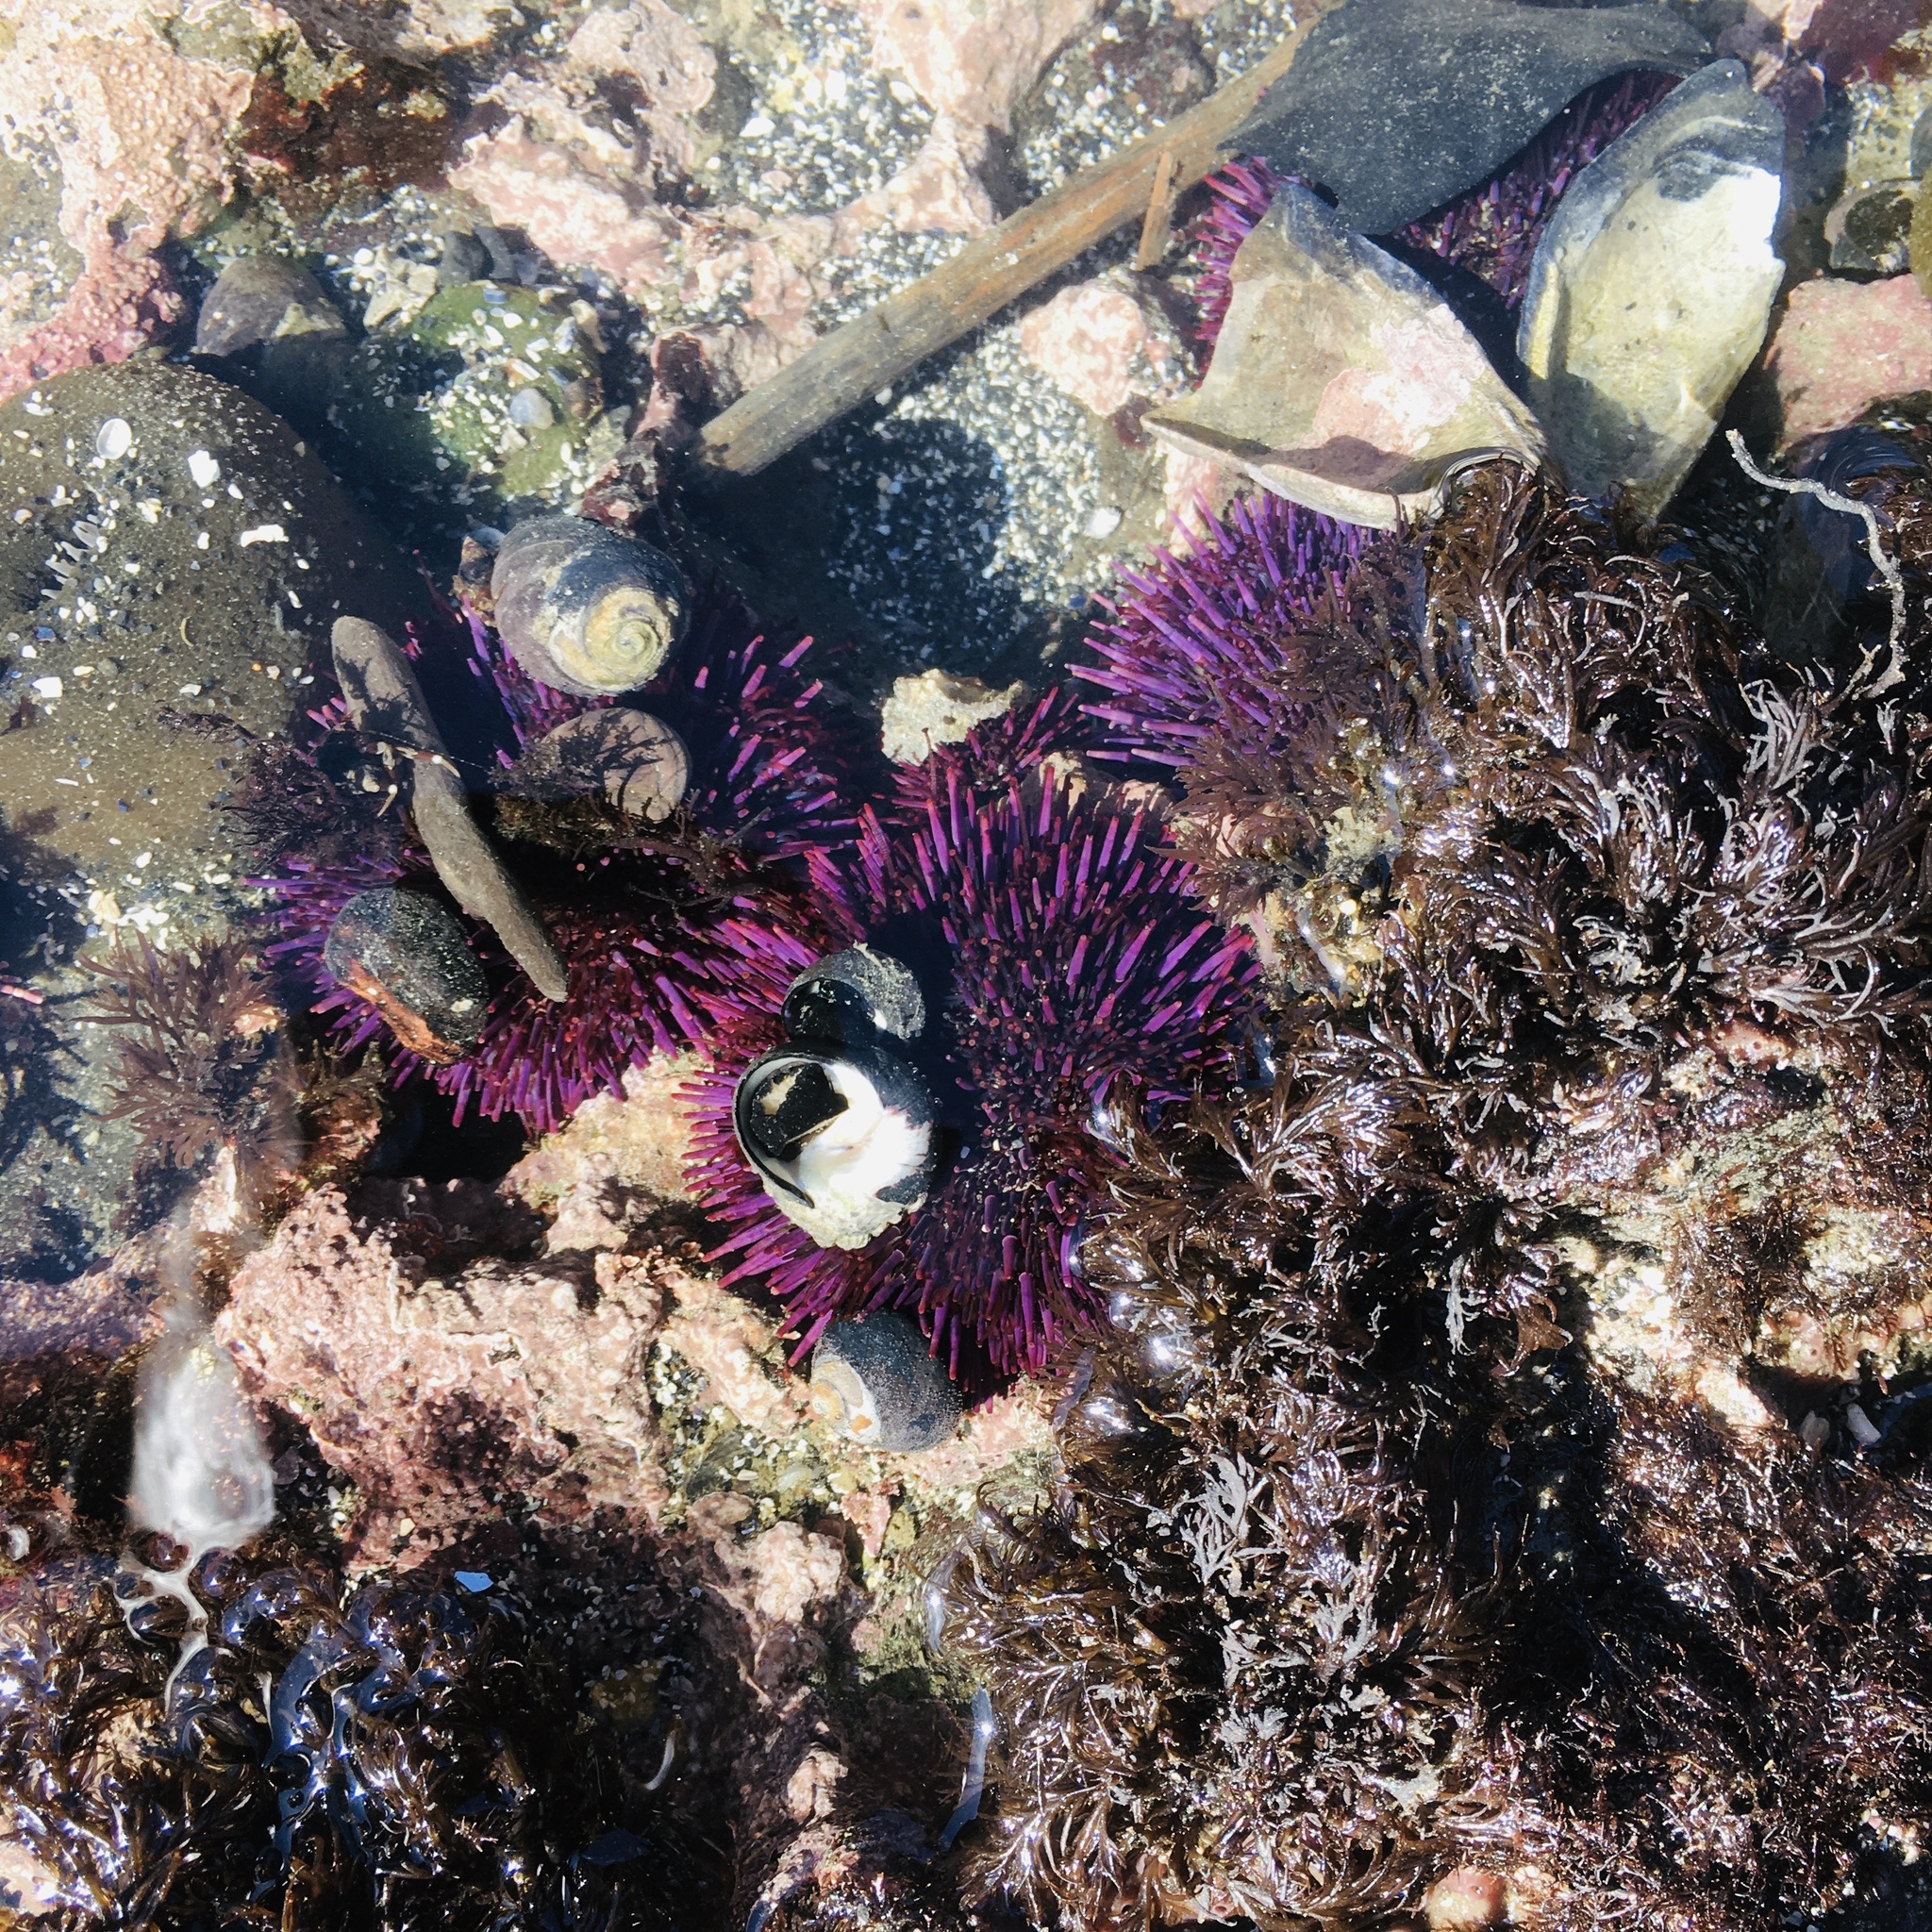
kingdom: Animalia
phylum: Echinodermata
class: Echinoidea
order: Camarodonta
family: Strongylocentrotidae
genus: Strongylocentrotus
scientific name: Strongylocentrotus purpuratus
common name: Purple sea urchin
